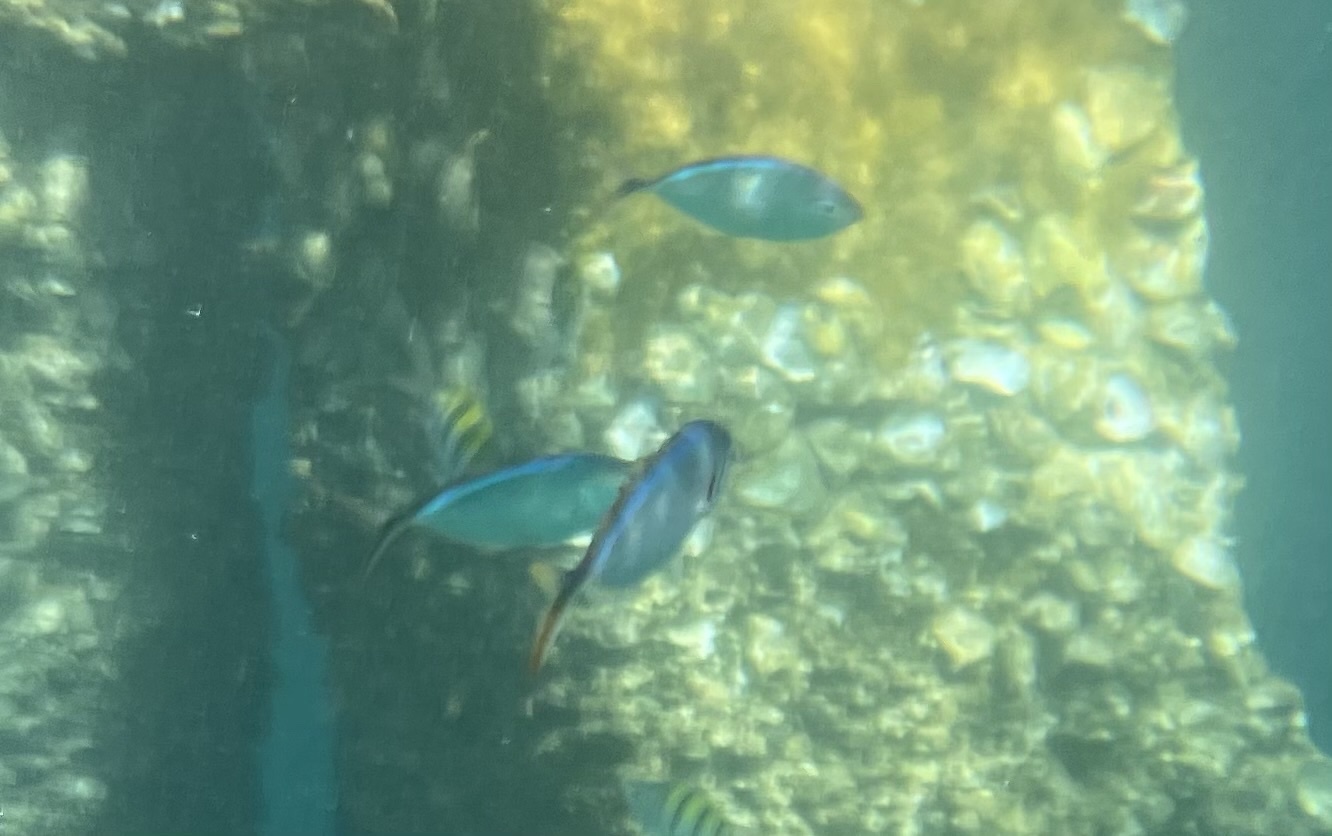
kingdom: Animalia
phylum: Chordata
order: Perciformes
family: Carangidae
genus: Caranx
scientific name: Caranx ruber
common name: Bar jack
